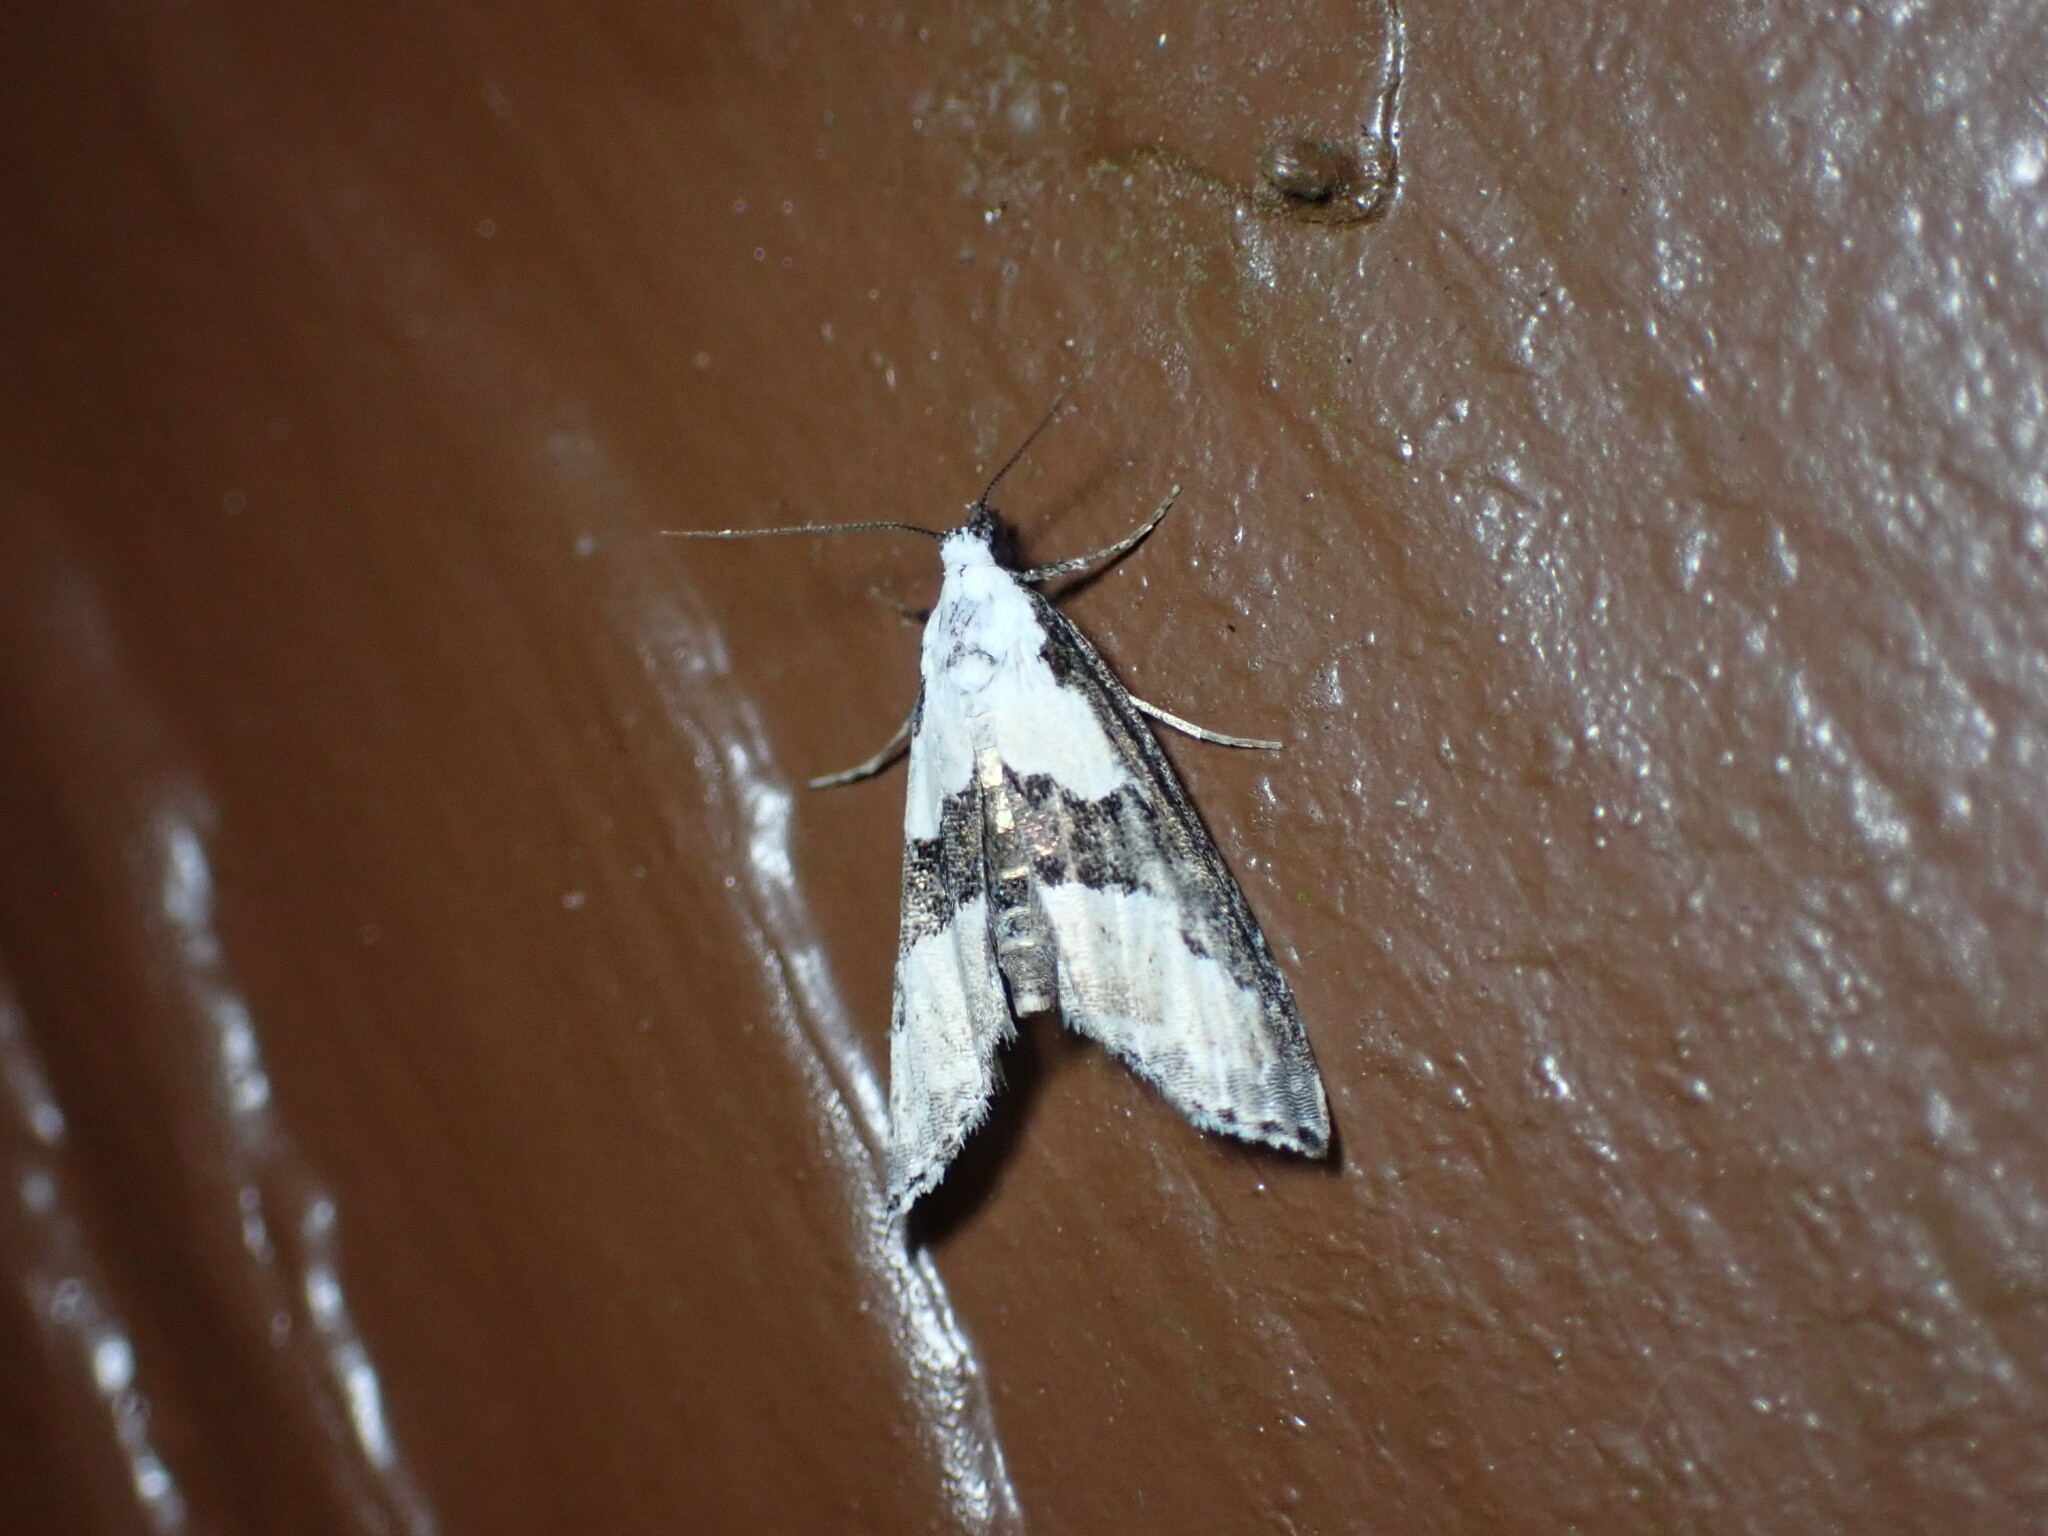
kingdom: Animalia
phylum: Arthropoda
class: Insecta
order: Lepidoptera
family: Noctuidae
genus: Nigetia
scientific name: Nigetia formosalis
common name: Thin-winged owlet
